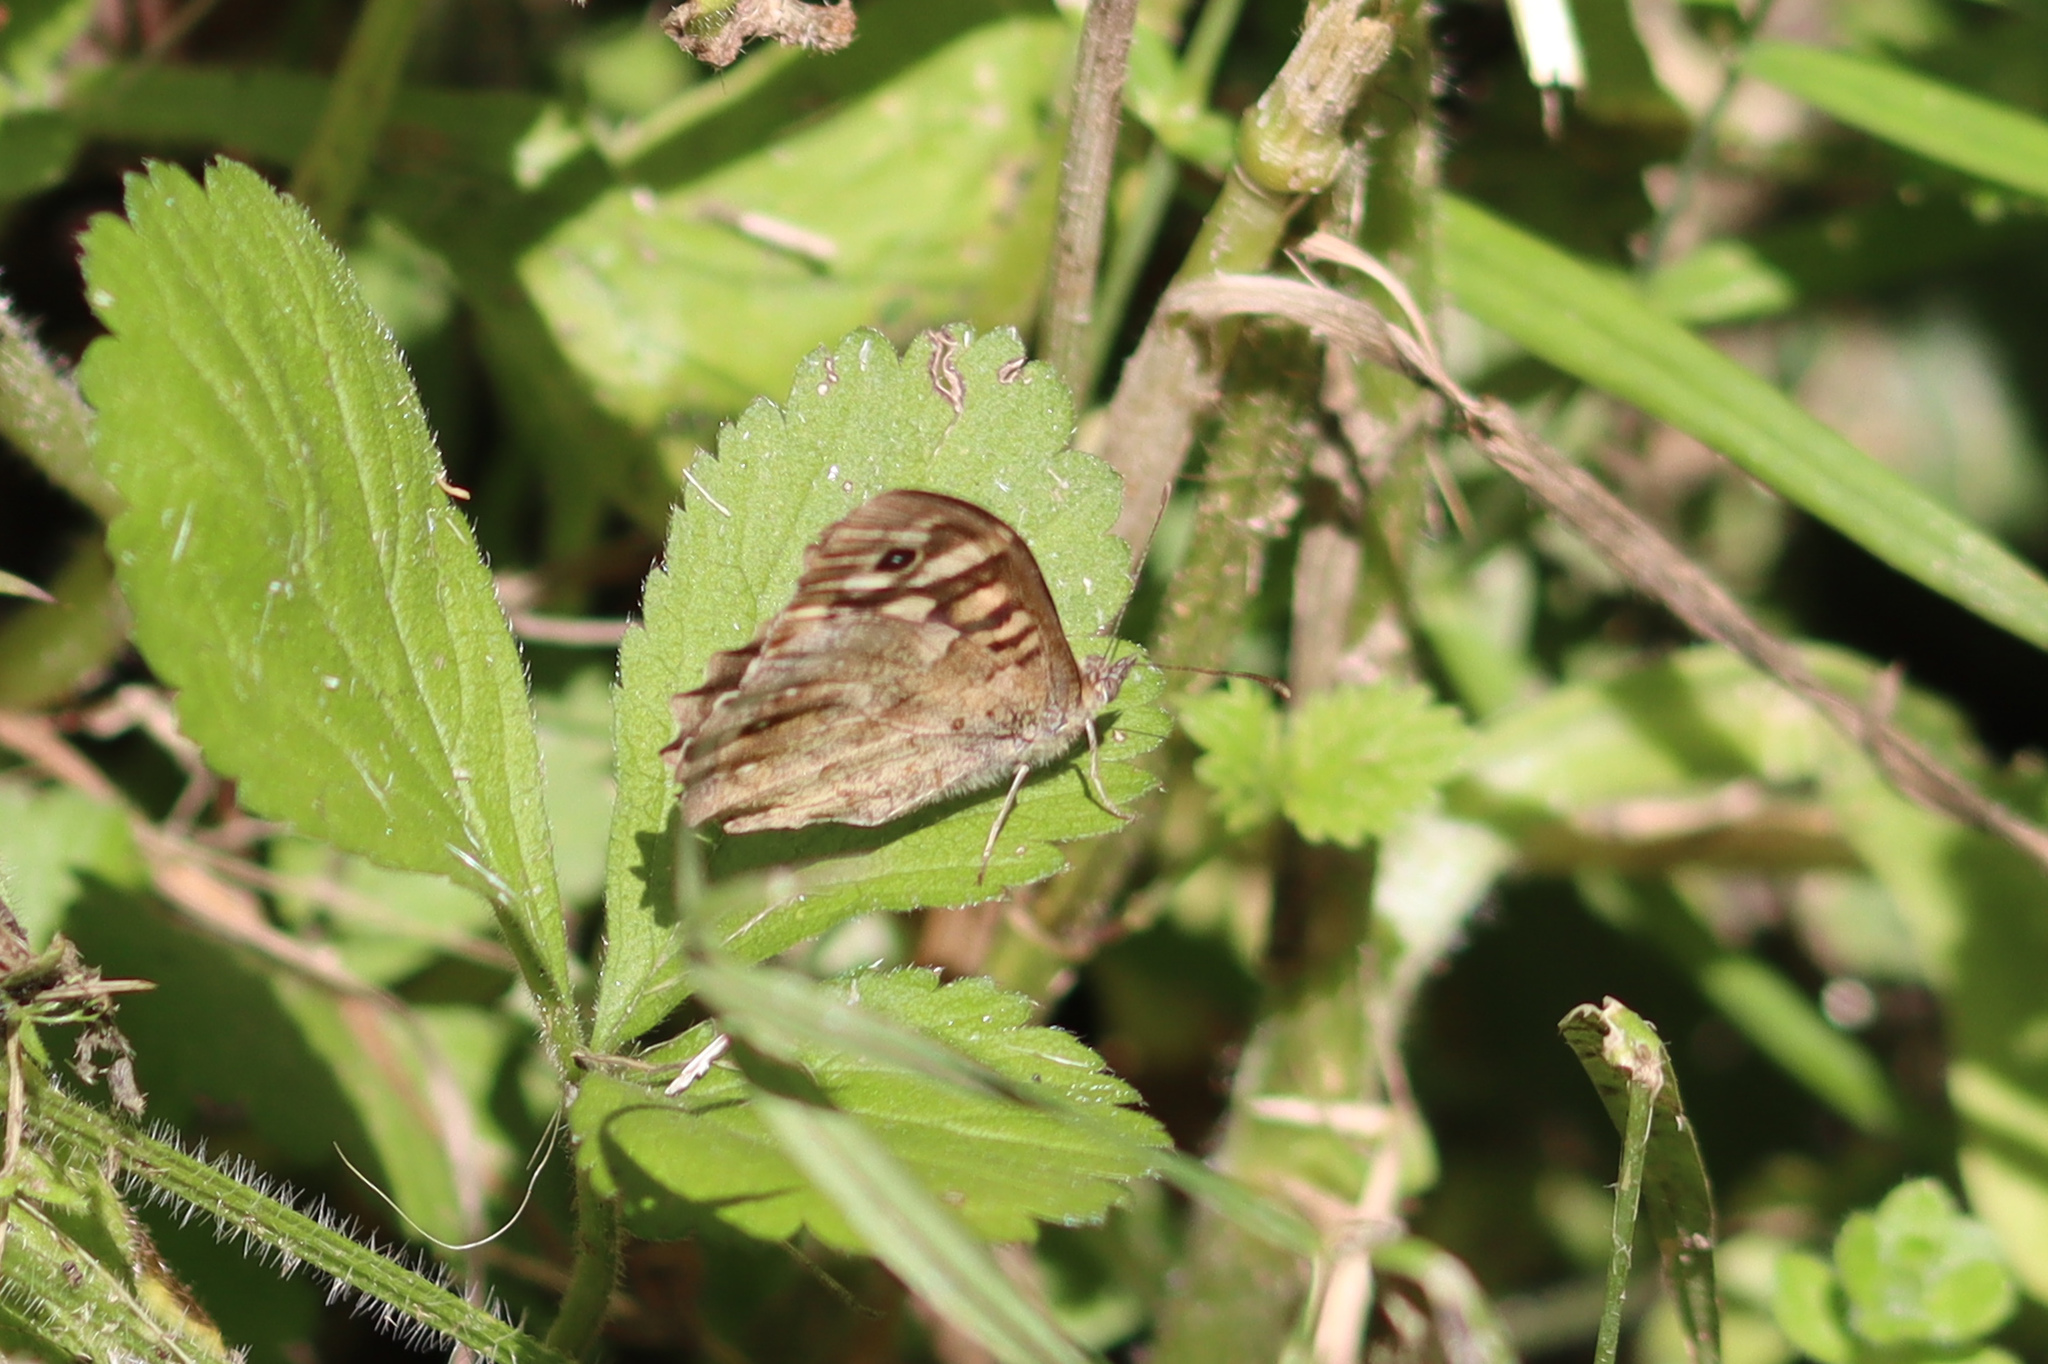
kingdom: Animalia
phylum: Arthropoda
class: Insecta
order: Lepidoptera
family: Nymphalidae
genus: Pararge
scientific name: Pararge aegeria
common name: Speckled wood
